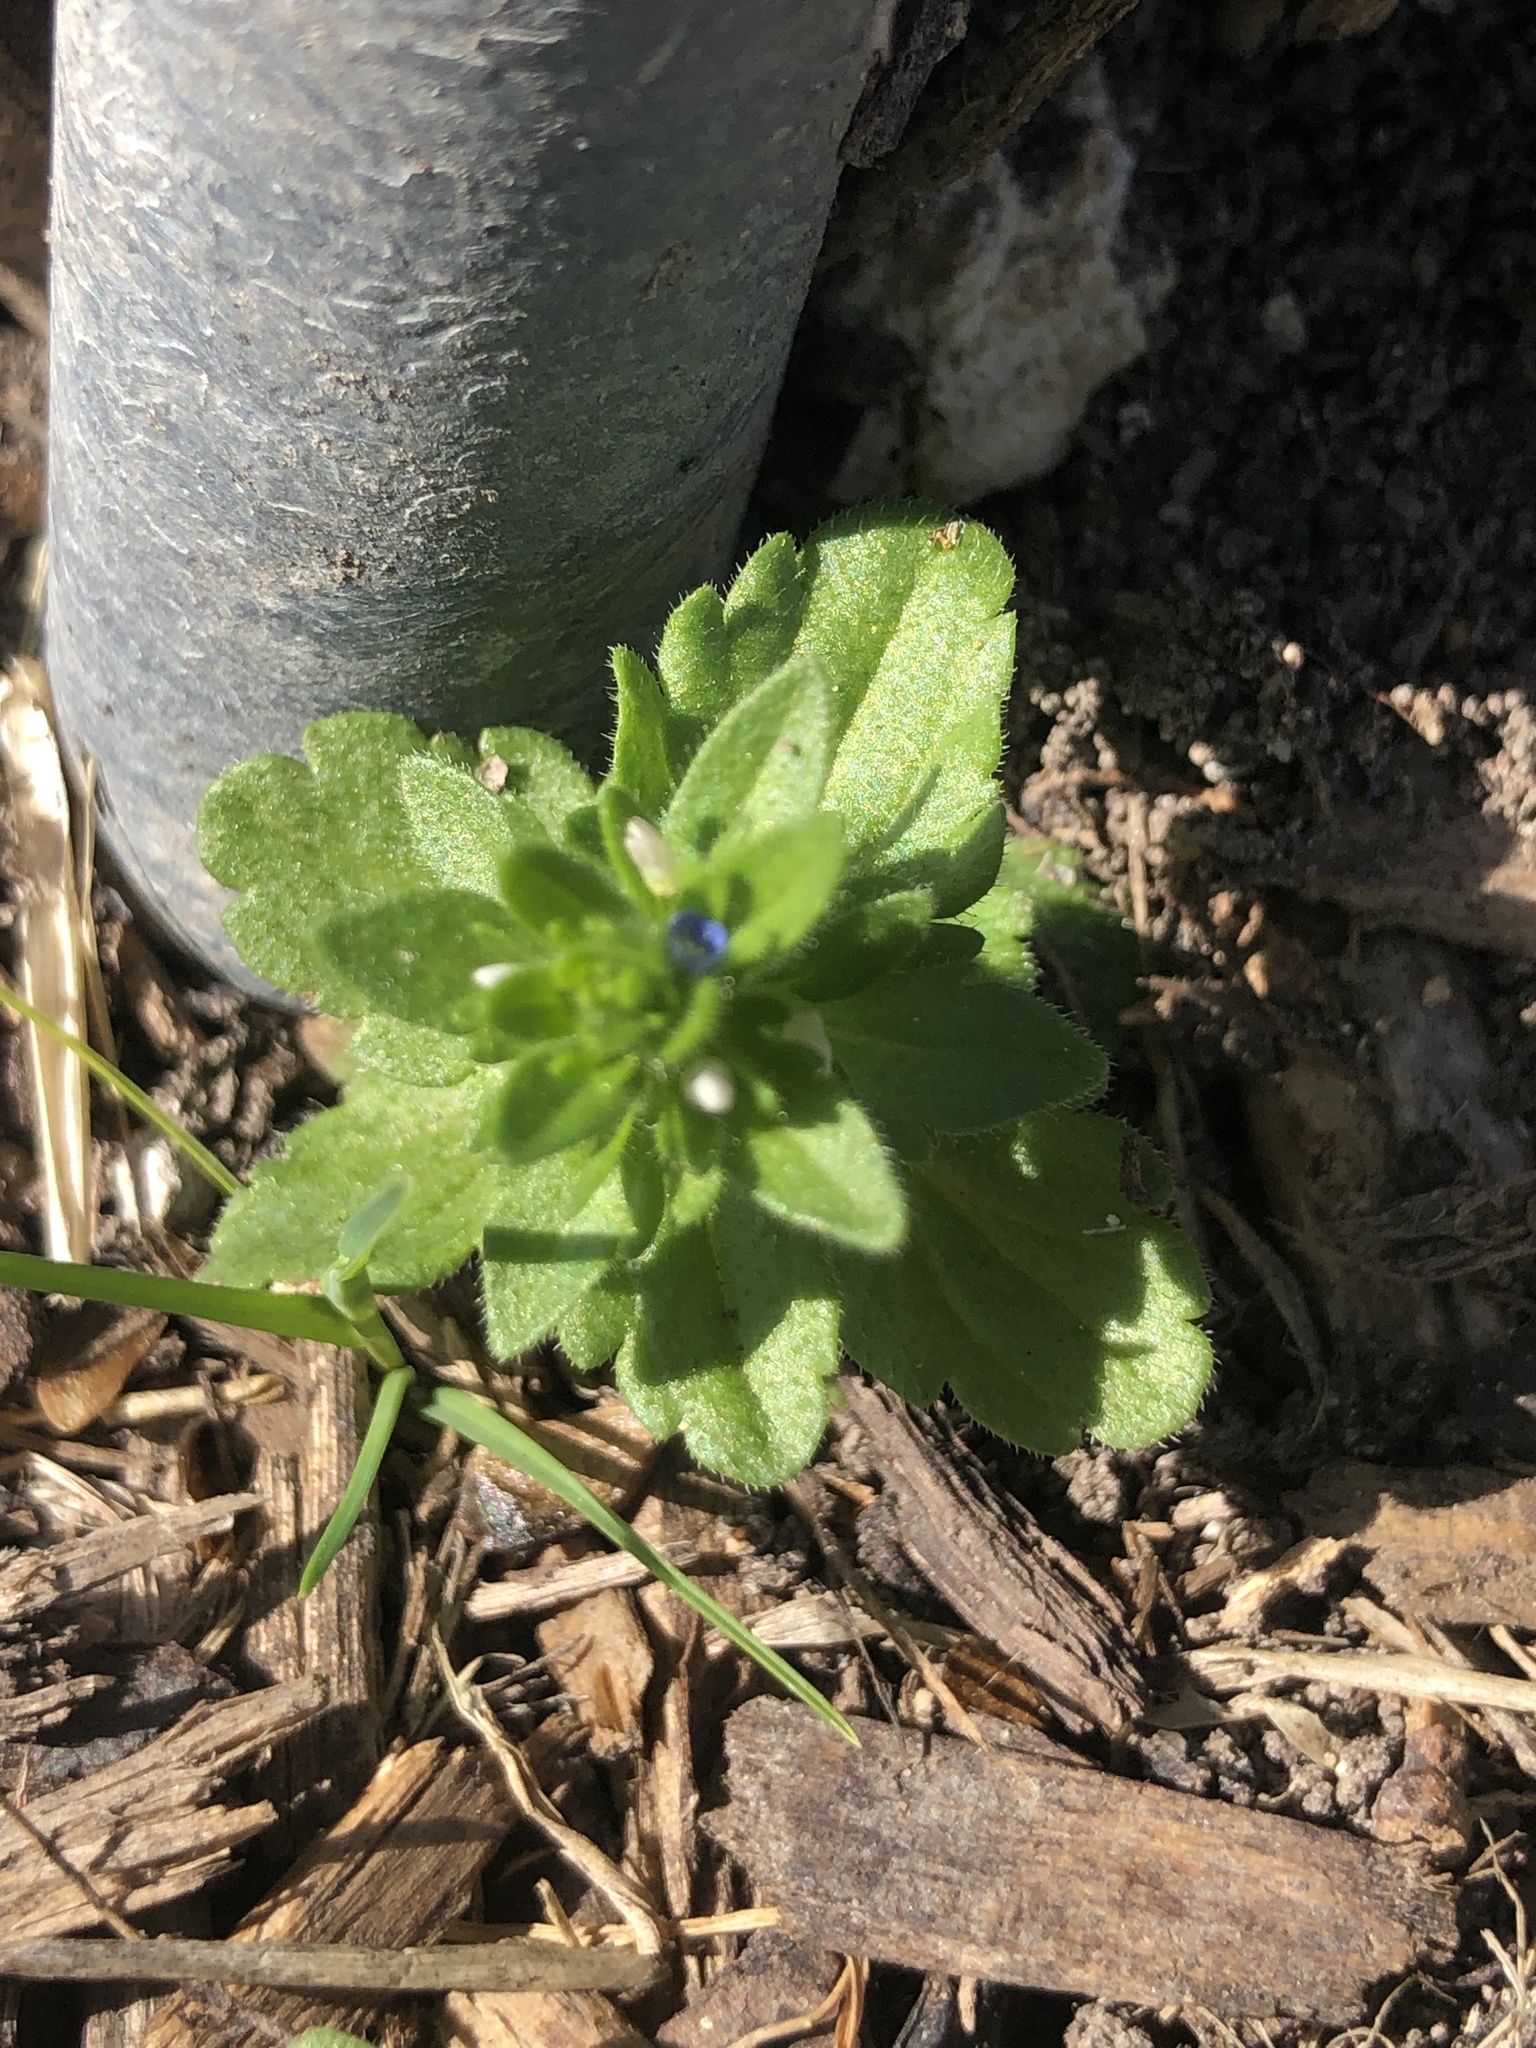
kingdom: Plantae
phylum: Tracheophyta
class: Magnoliopsida
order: Lamiales
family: Plantaginaceae
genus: Veronica
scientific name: Veronica arvensis
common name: Corn speedwell
